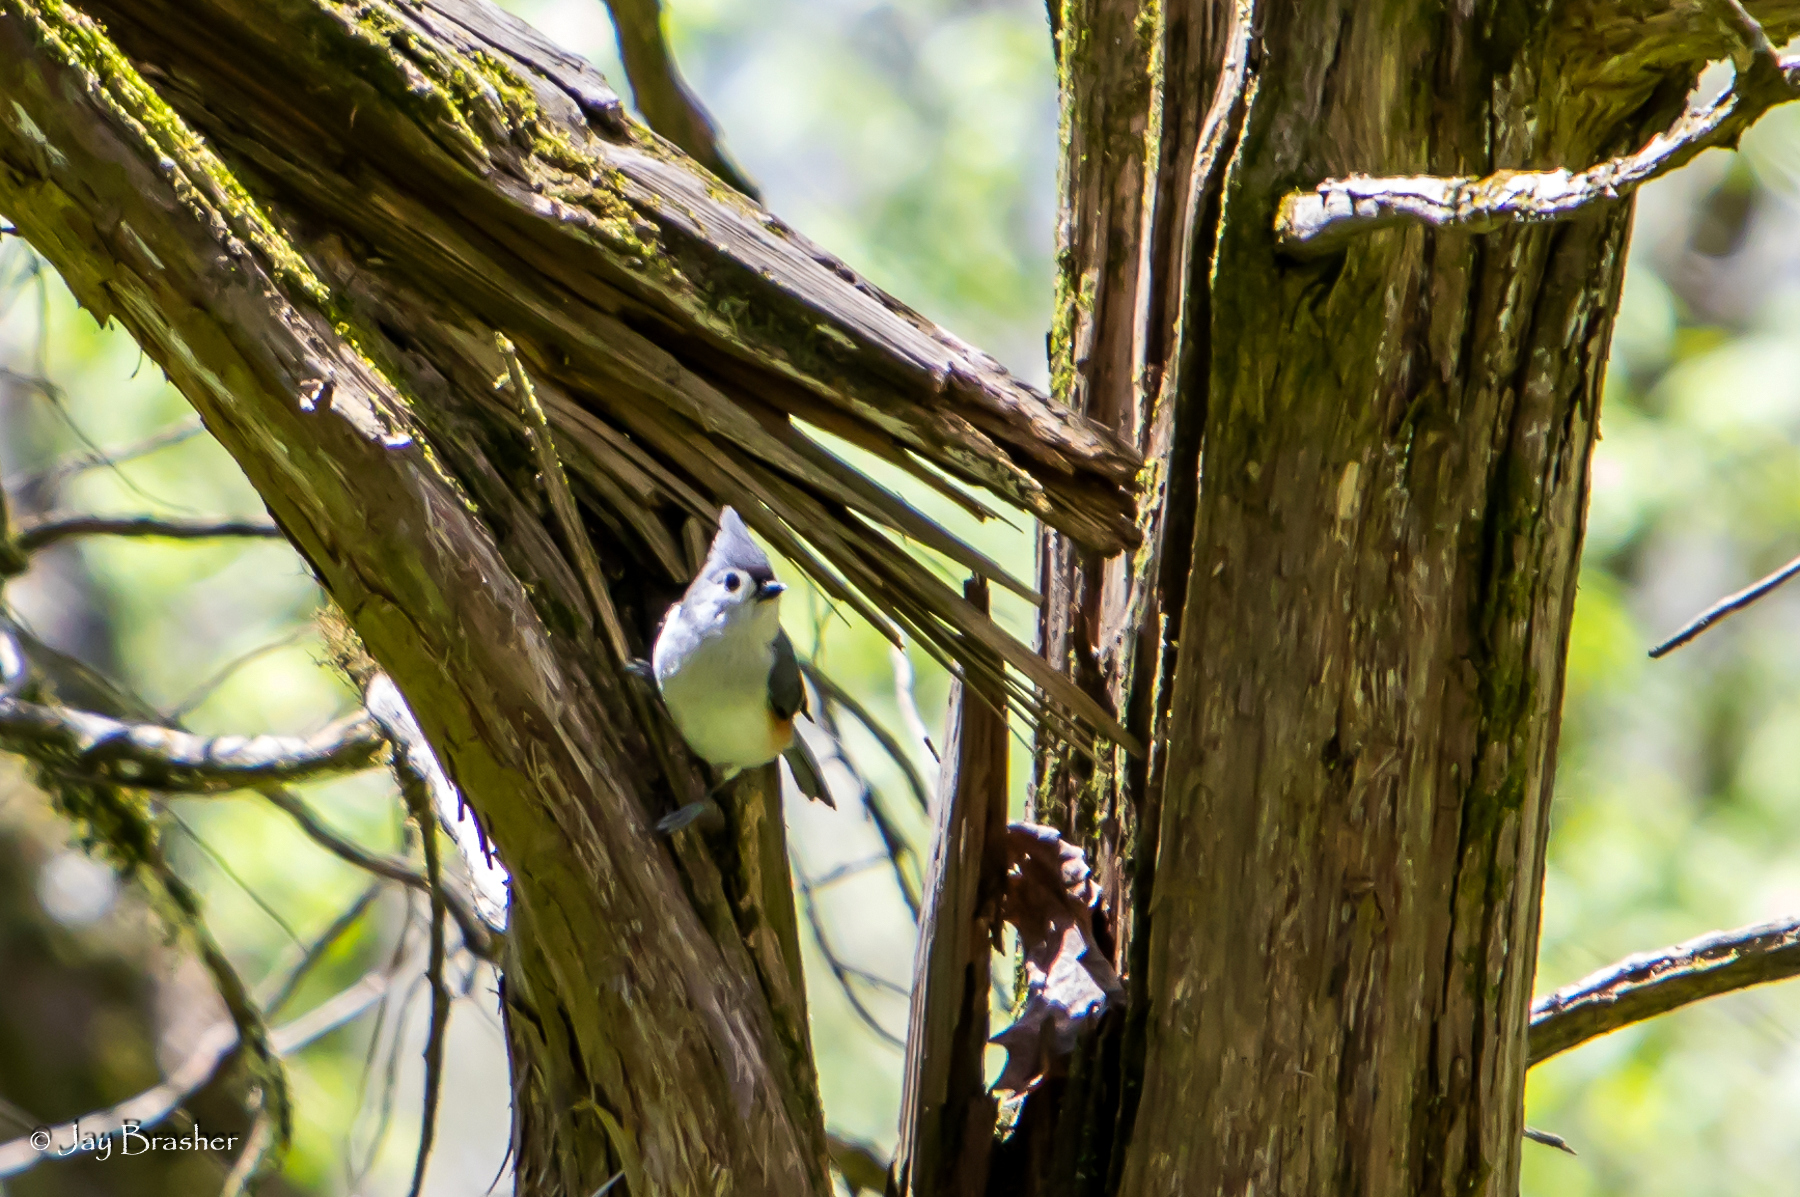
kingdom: Animalia
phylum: Chordata
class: Aves
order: Passeriformes
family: Paridae
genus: Baeolophus
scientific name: Baeolophus bicolor
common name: Tufted titmouse
